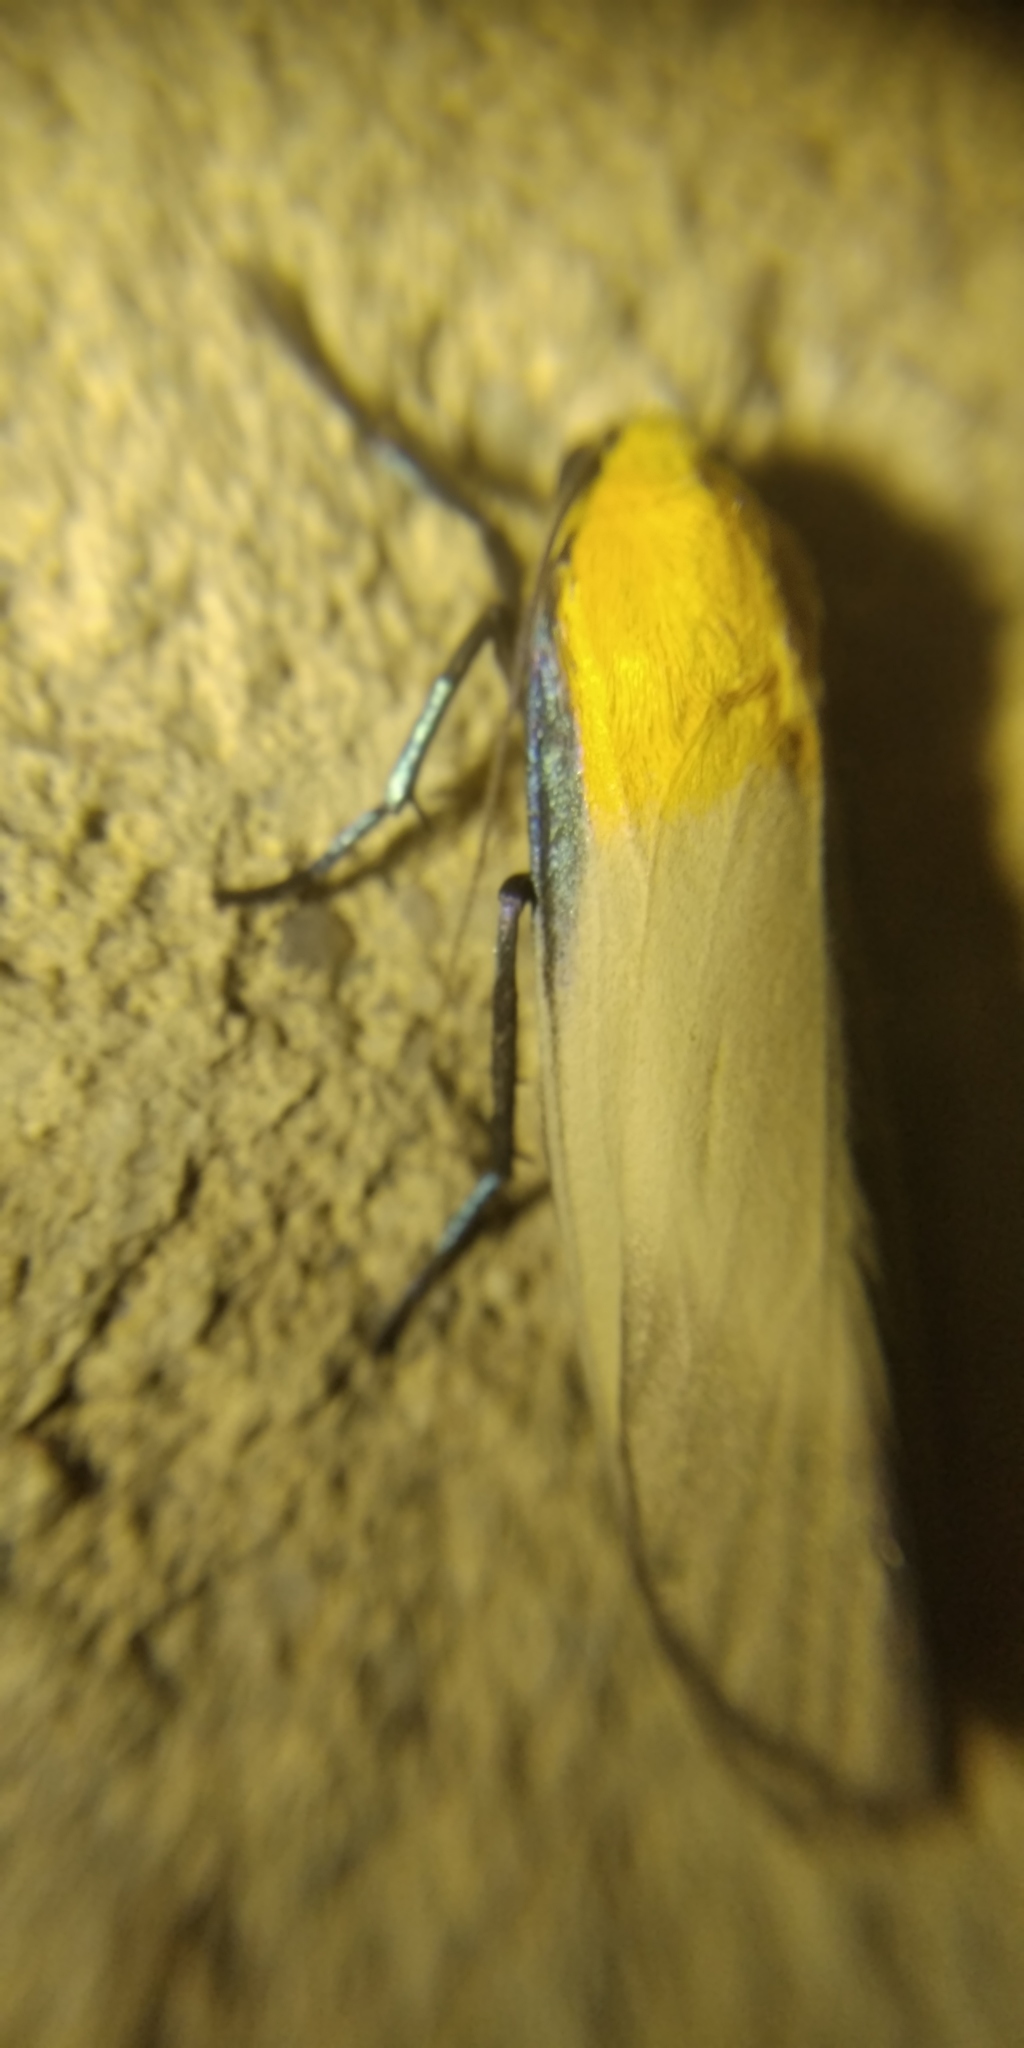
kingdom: Animalia
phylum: Arthropoda
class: Insecta
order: Lepidoptera
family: Erebidae
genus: Lithosia
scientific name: Lithosia quadra
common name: Four-spotted footman
